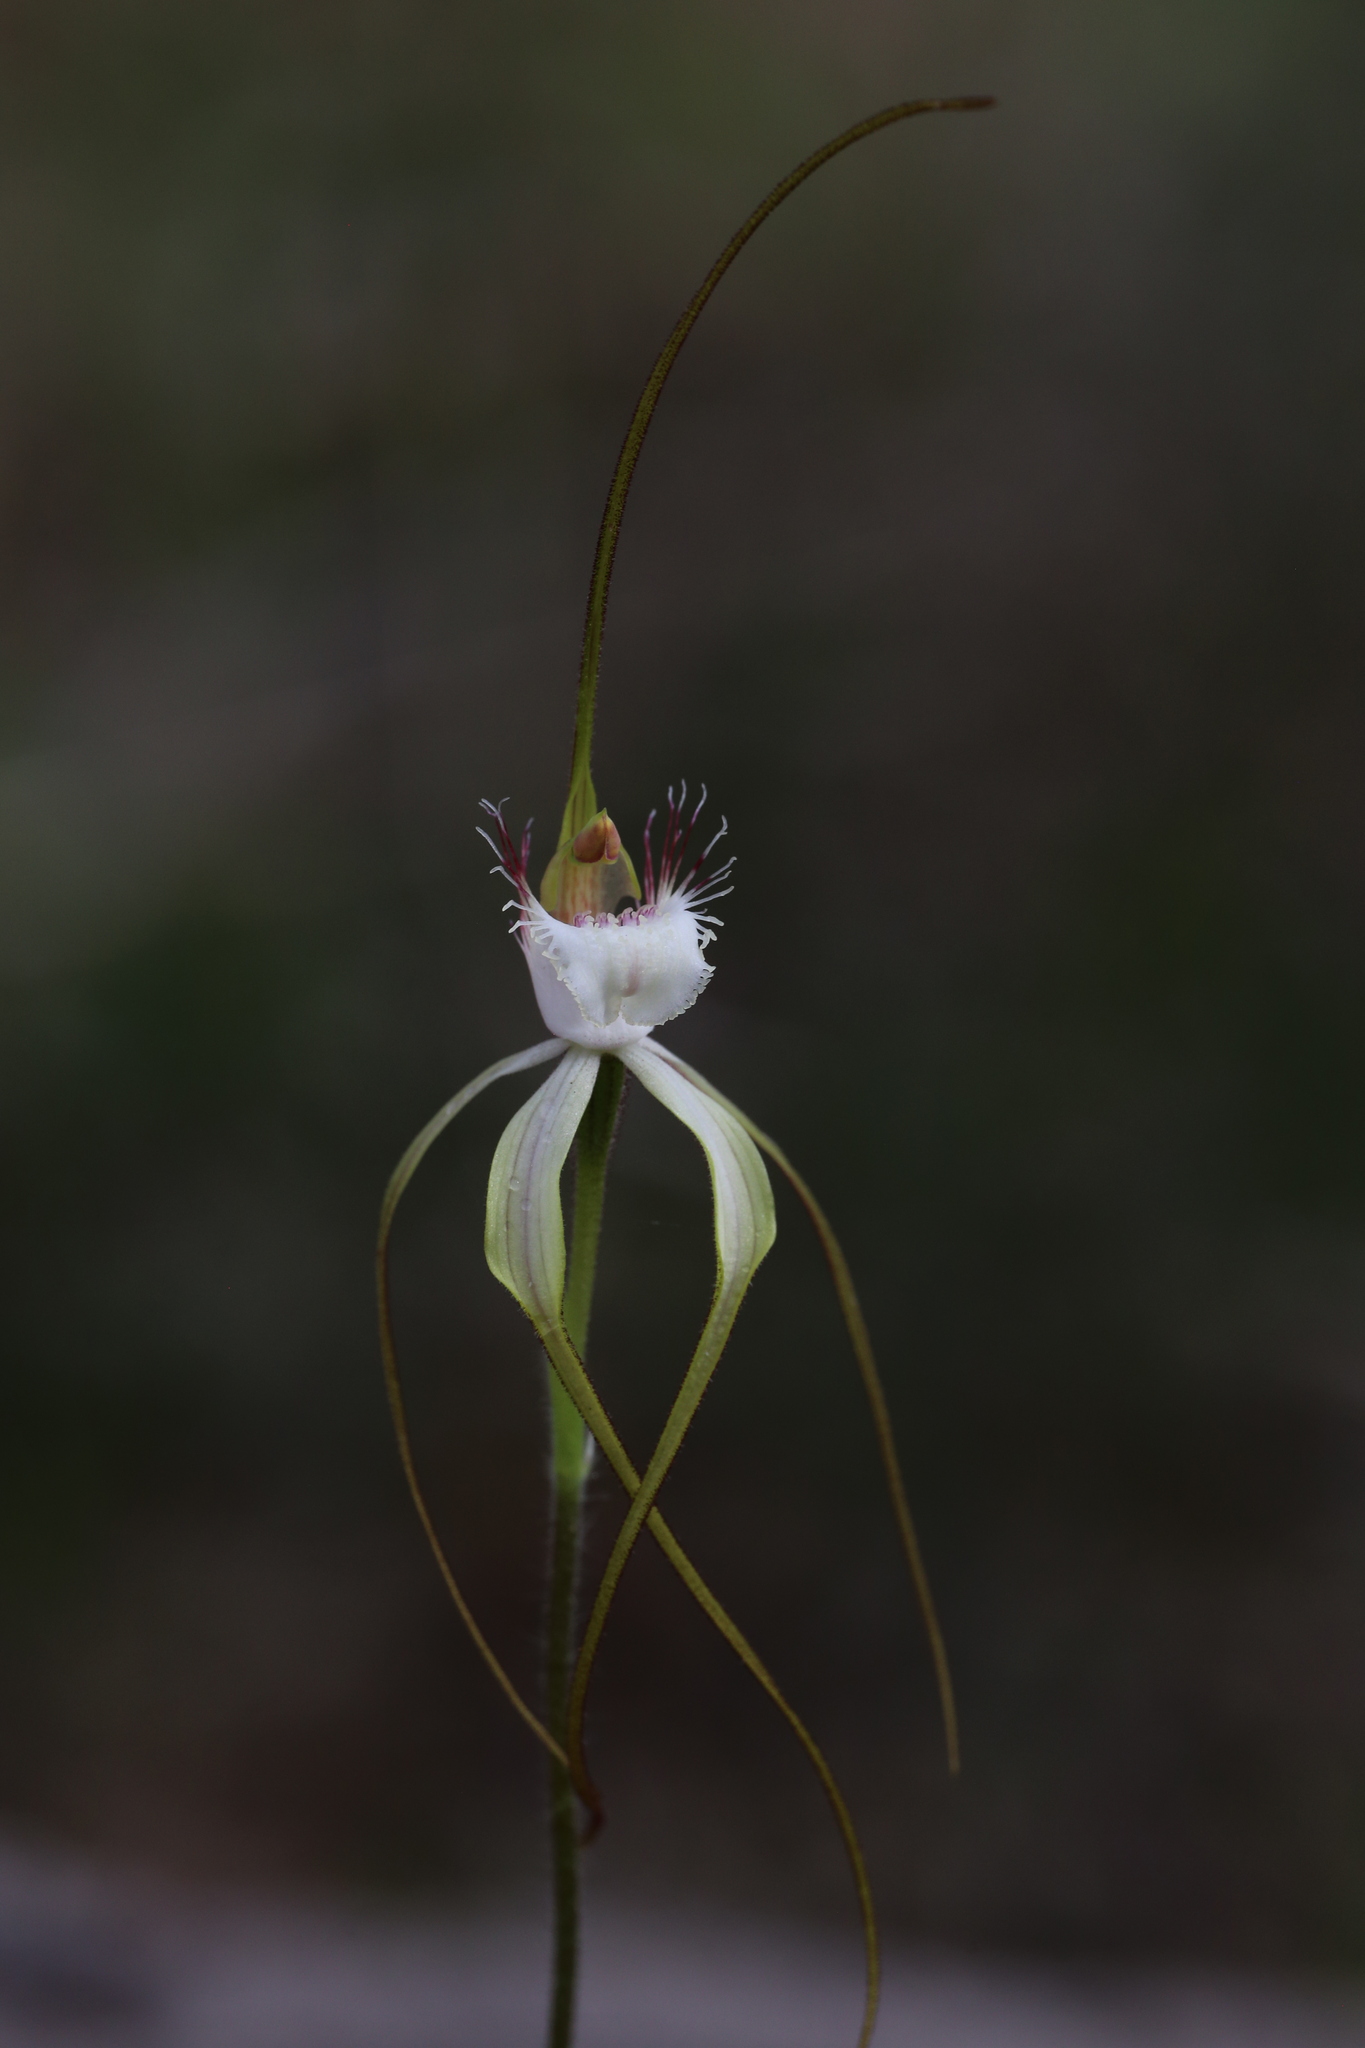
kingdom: Plantae
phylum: Tracheophyta
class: Liliopsida
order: Asparagales
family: Orchidaceae
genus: Caladenia
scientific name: Caladenia speciosa
